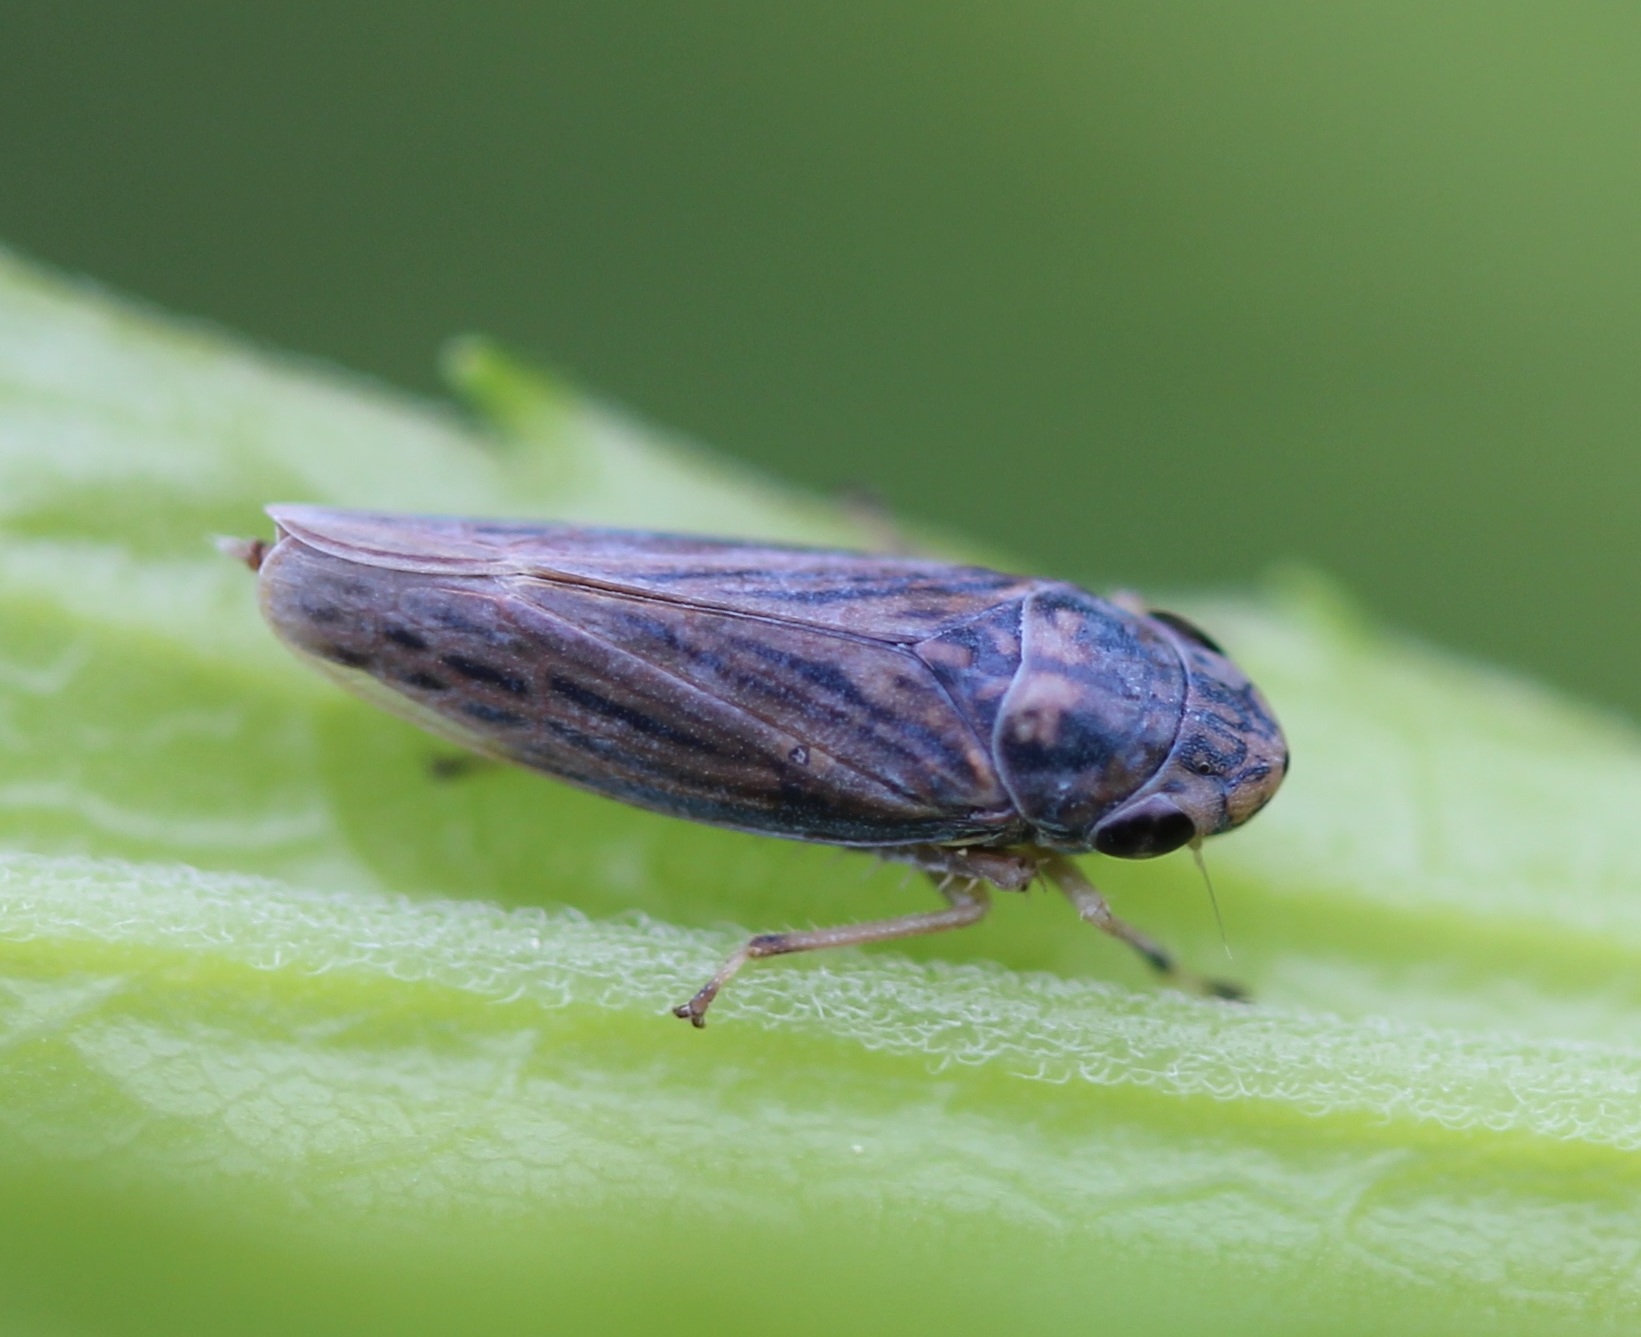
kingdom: Animalia
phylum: Arthropoda
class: Insecta
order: Hemiptera
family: Cicadellidae
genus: Neokolla
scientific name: Neokolla hieroglyphica
